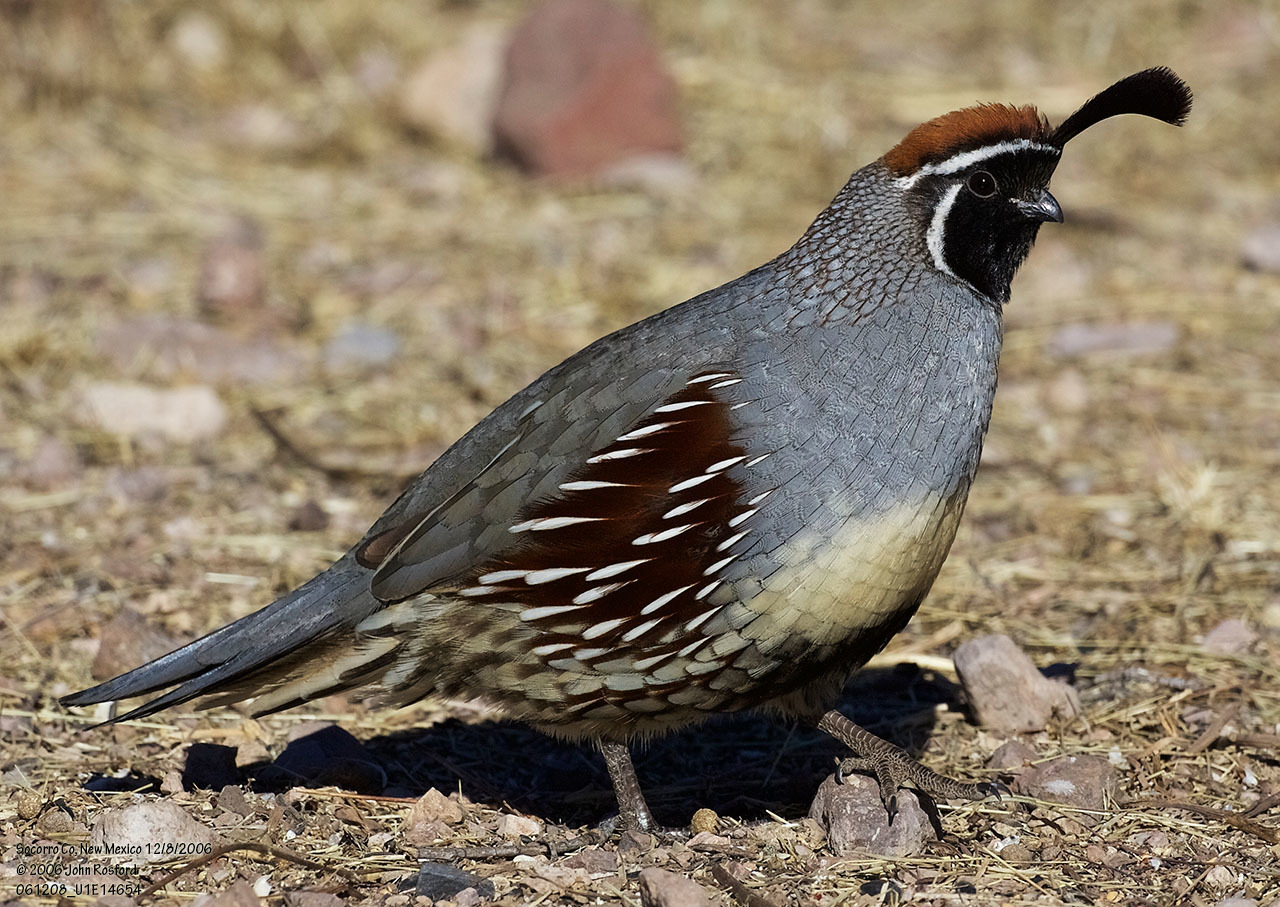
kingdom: Animalia
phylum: Chordata
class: Aves
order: Galliformes
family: Odontophoridae
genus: Callipepla
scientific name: Callipepla gambelii
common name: Gambel's quail
